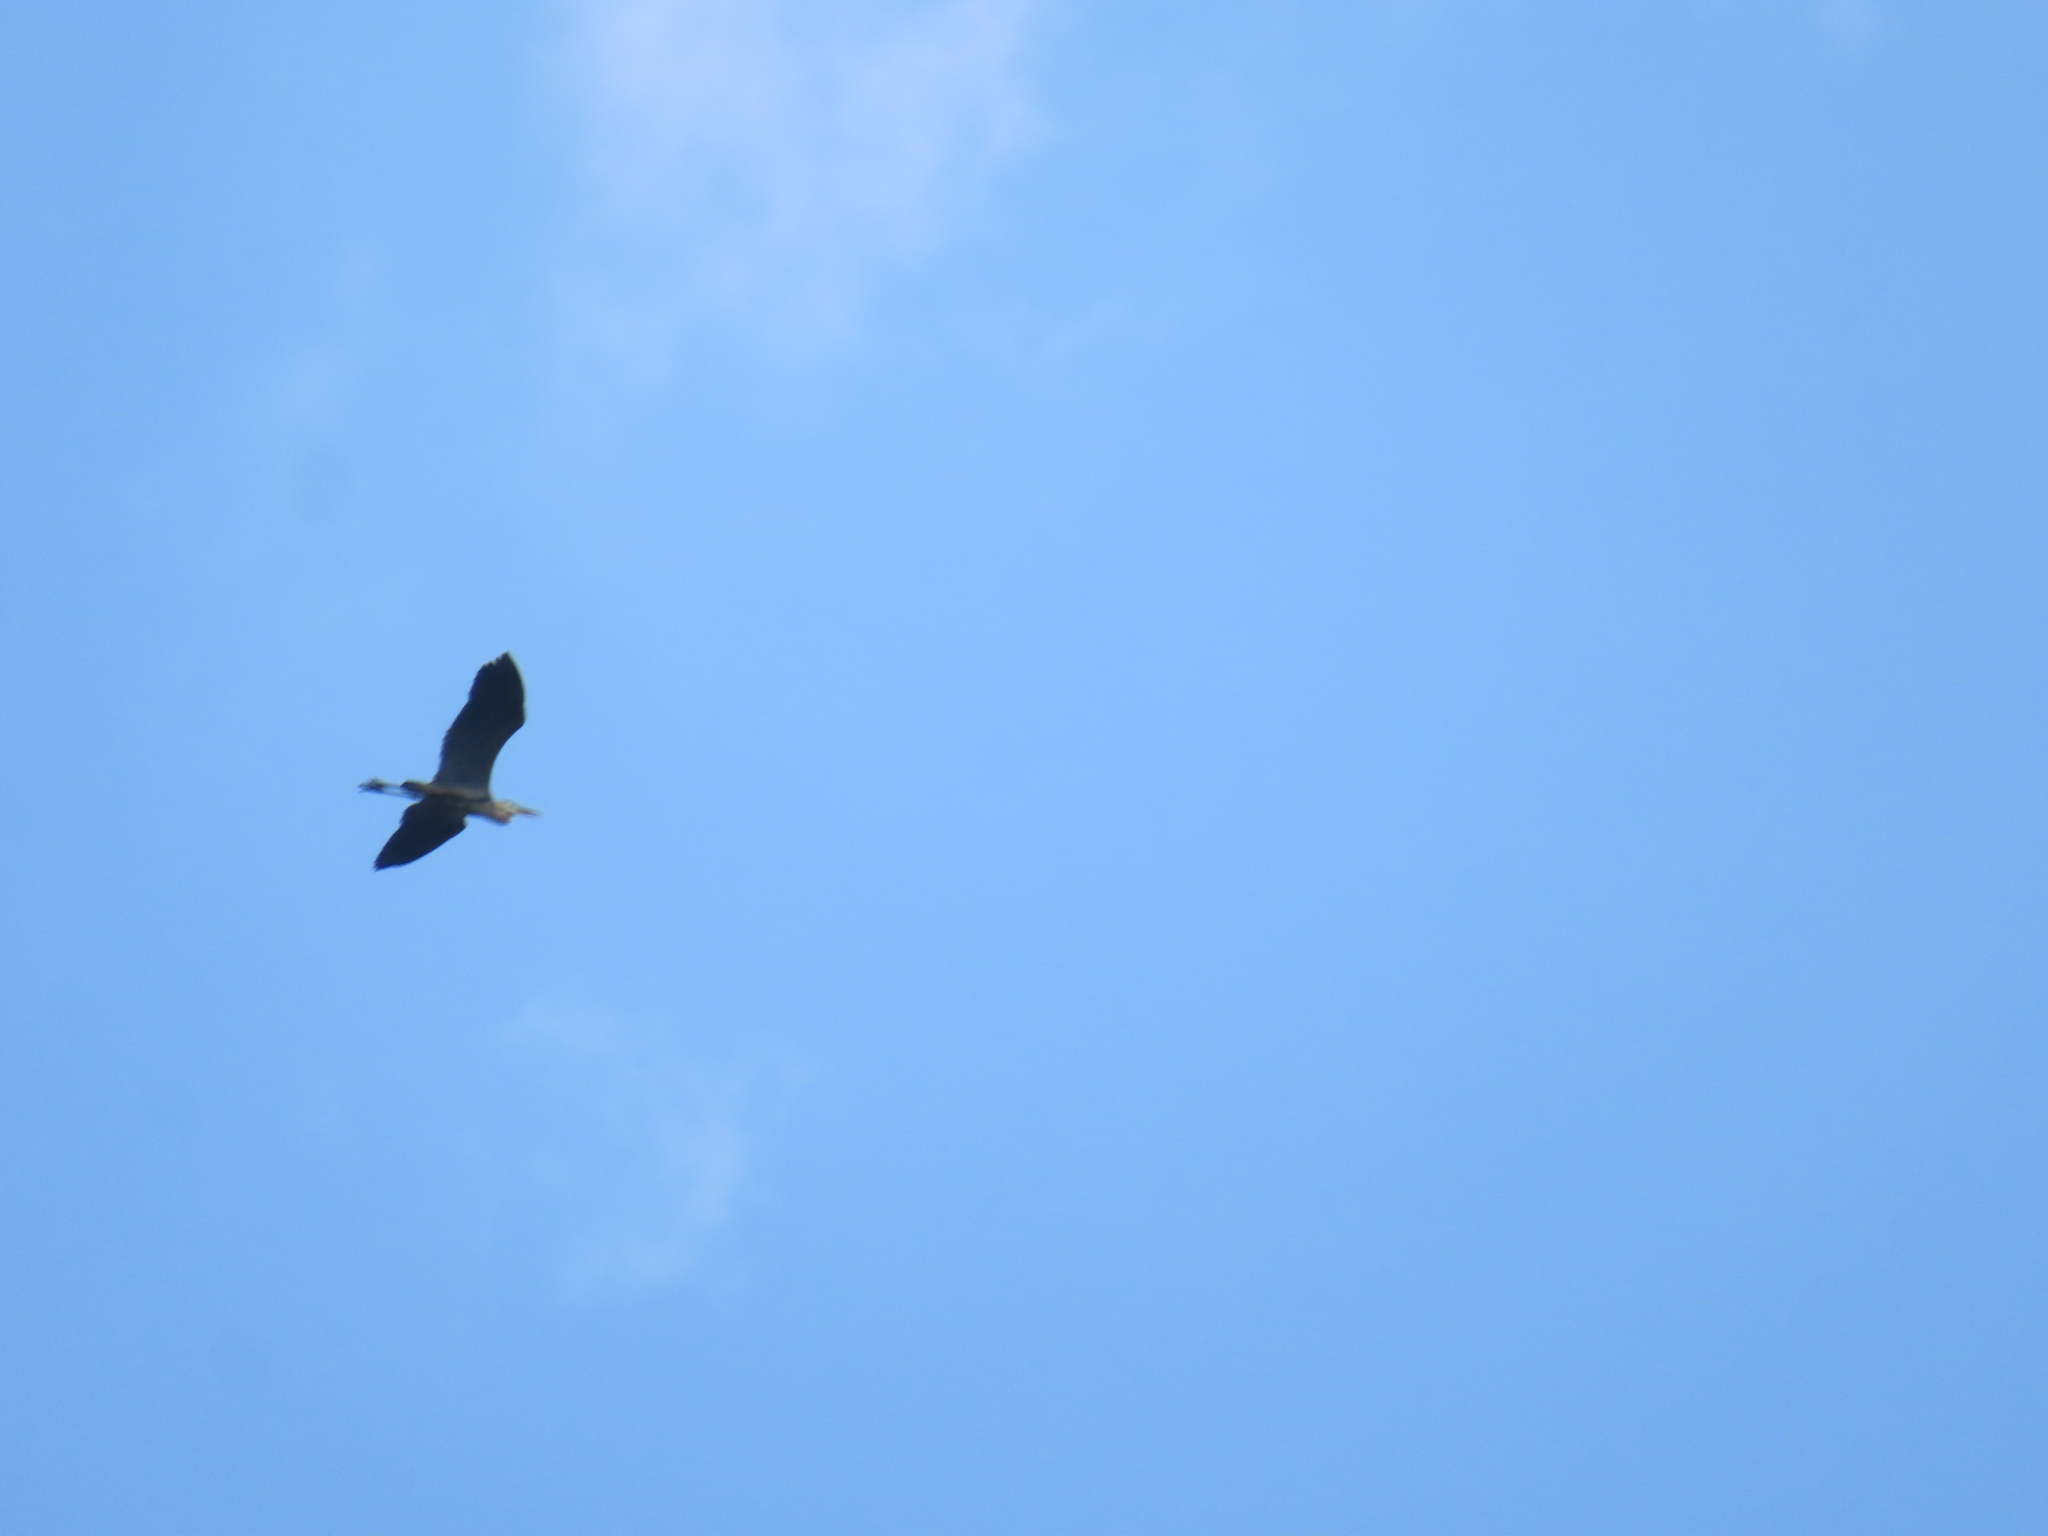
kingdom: Animalia
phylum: Chordata
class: Aves
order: Pelecaniformes
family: Ardeidae
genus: Ardea
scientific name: Ardea herodias
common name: Great blue heron
